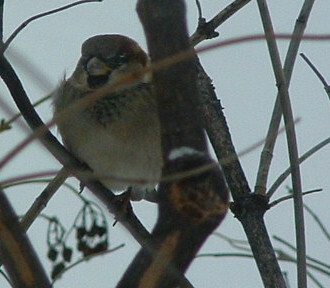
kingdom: Animalia
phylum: Chordata
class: Aves
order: Passeriformes
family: Passeridae
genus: Passer
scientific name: Passer domesticus
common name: House sparrow
